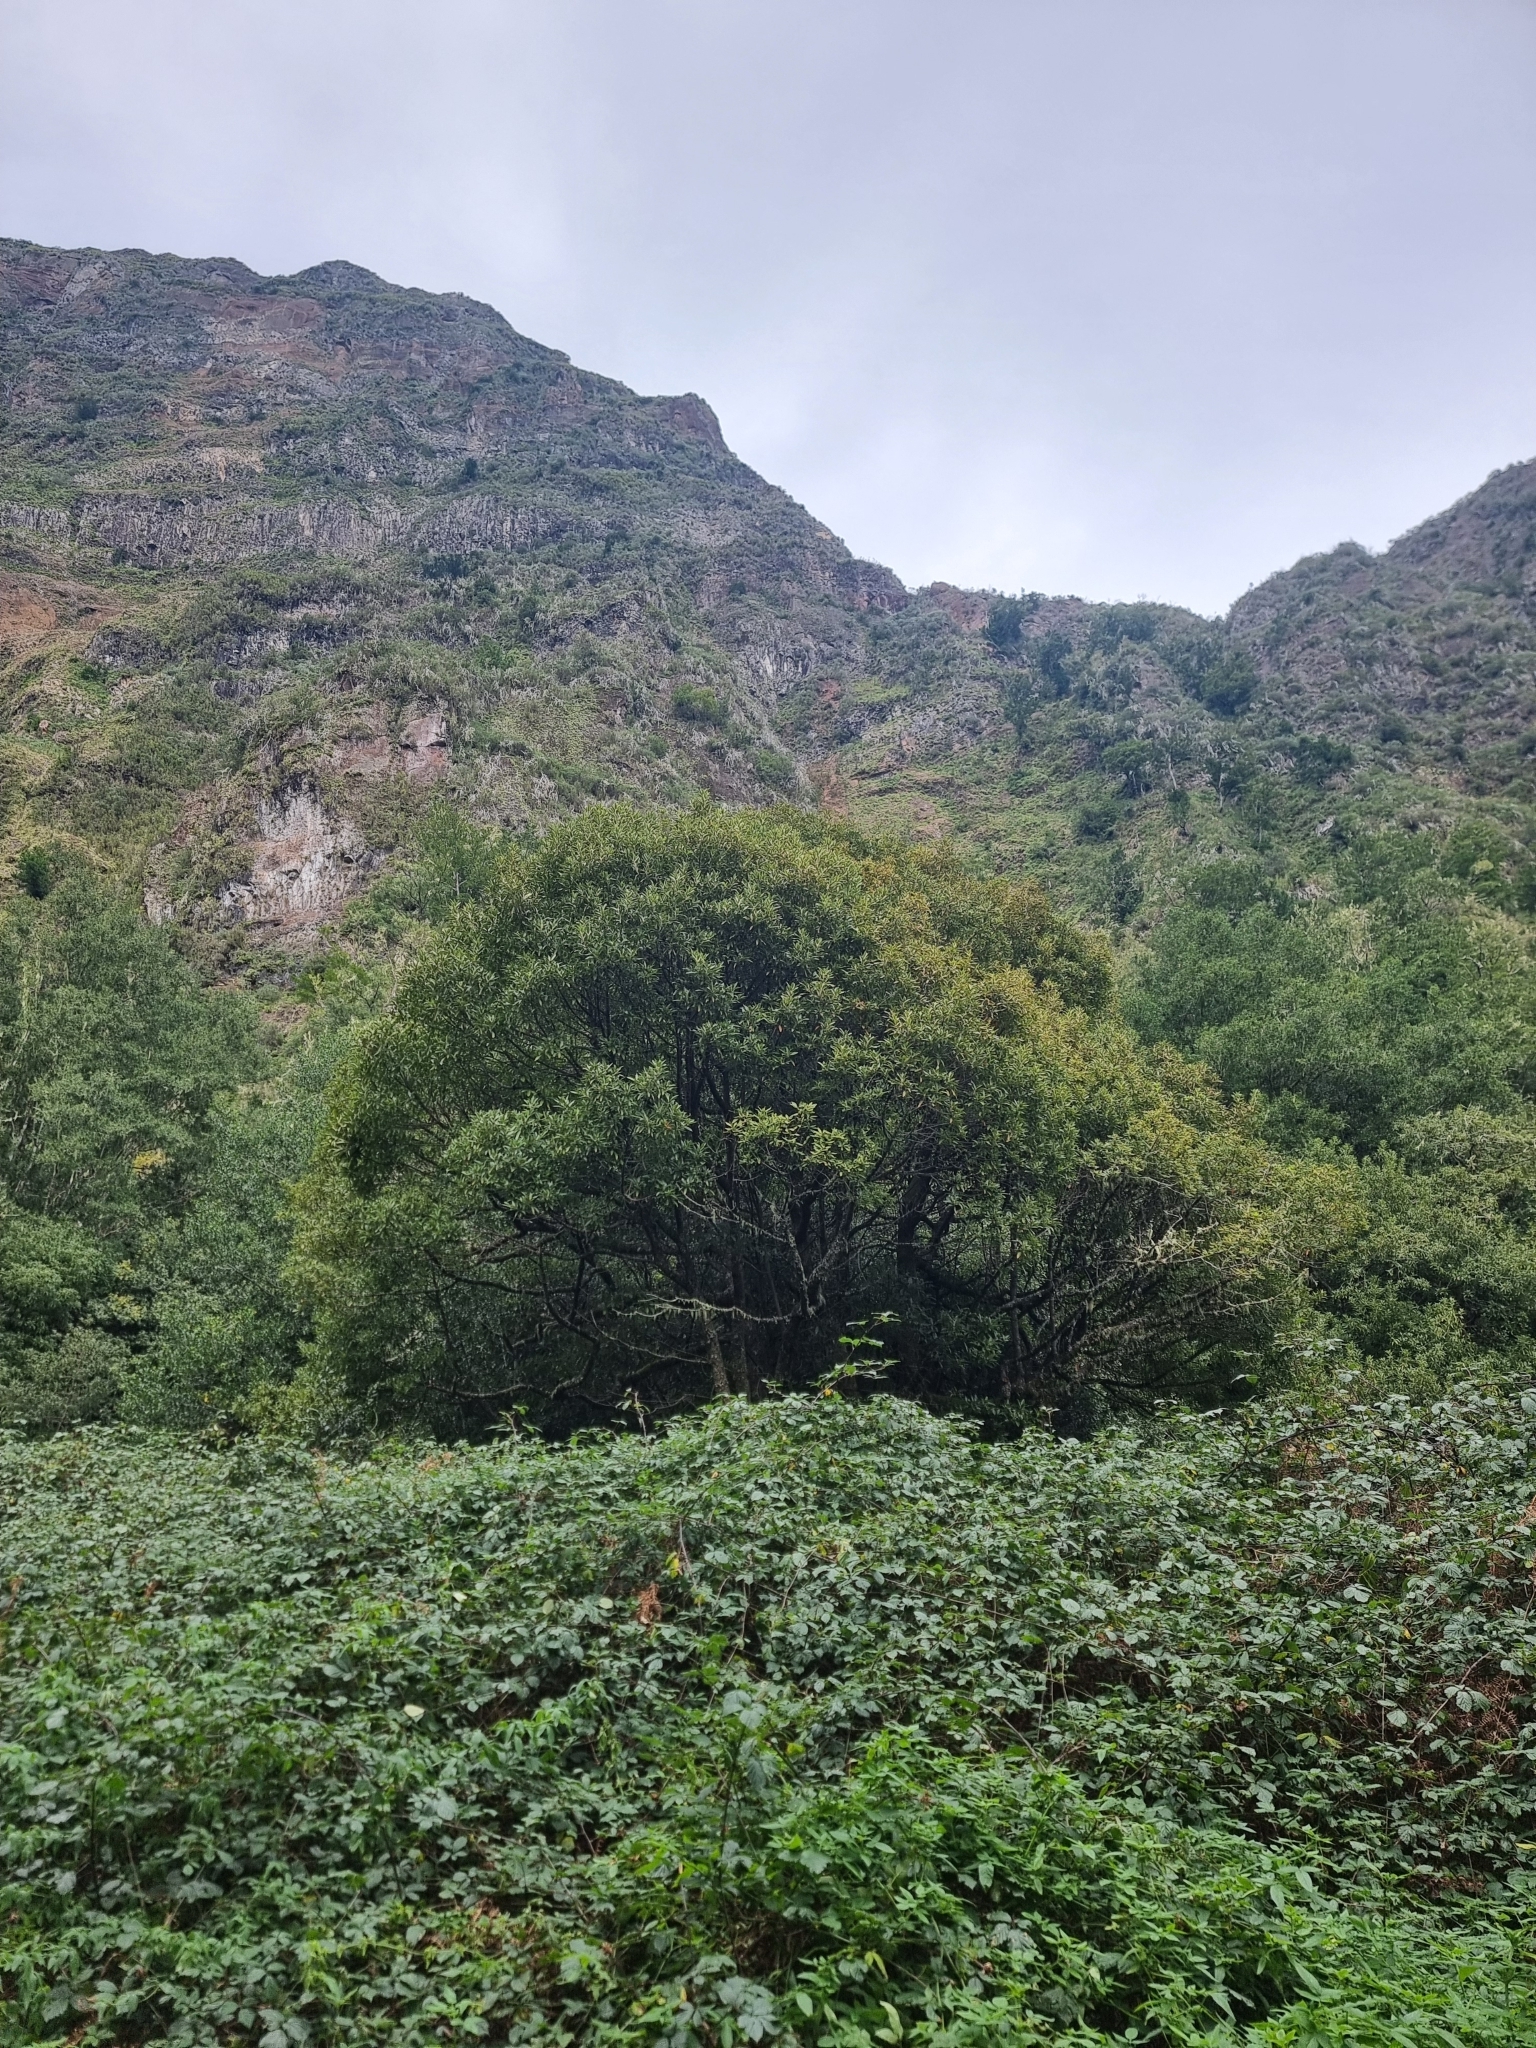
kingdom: Plantae
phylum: Tracheophyta
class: Magnoliopsida
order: Laurales
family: Lauraceae
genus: Persea
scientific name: Persea indica
